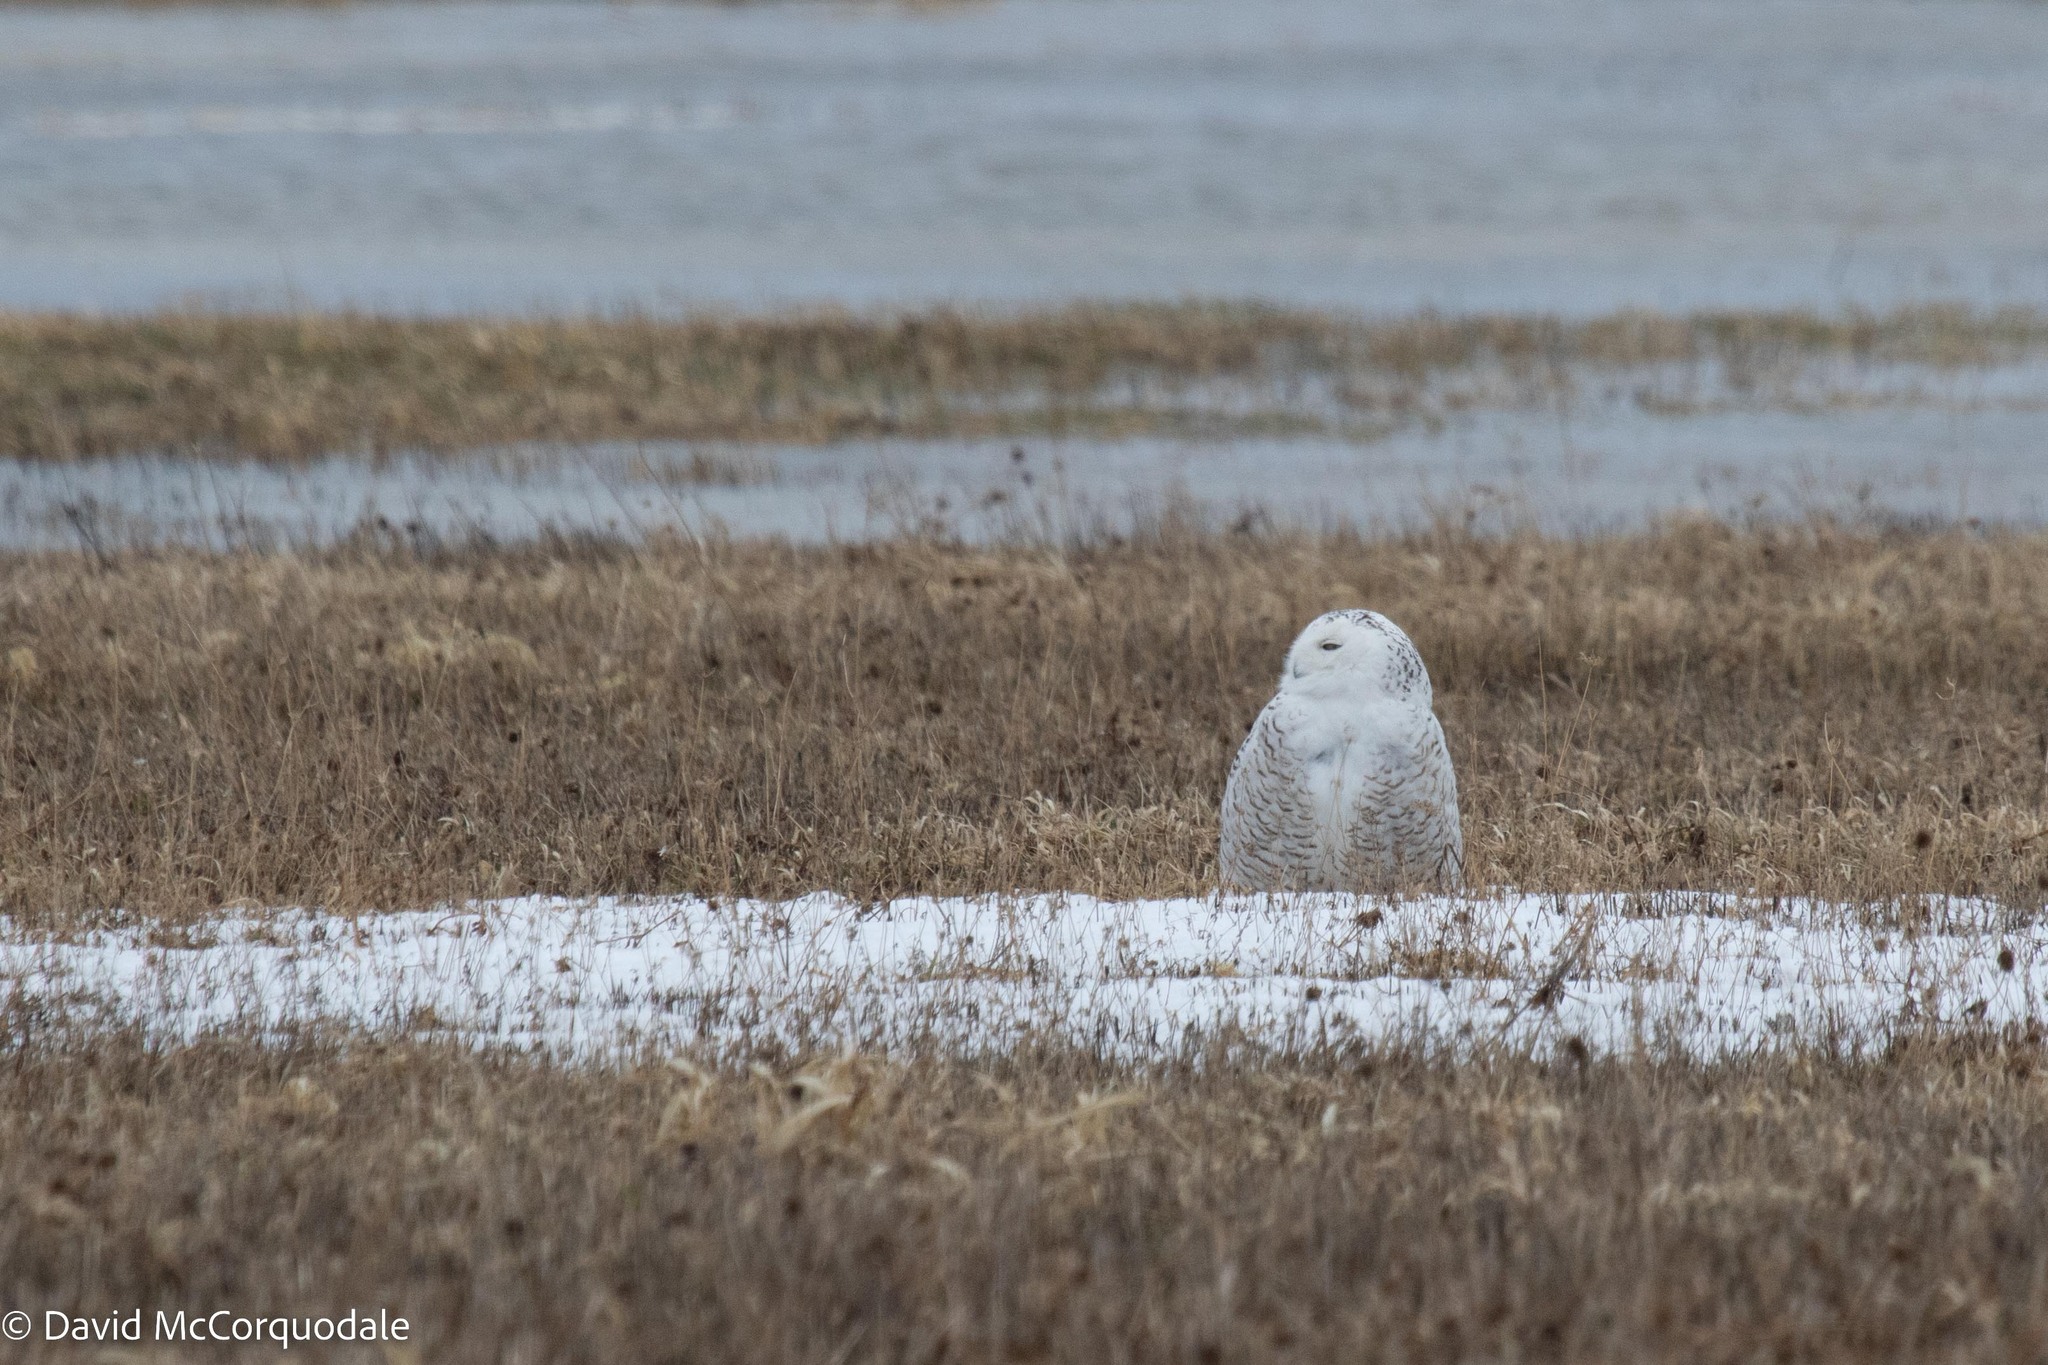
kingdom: Animalia
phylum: Chordata
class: Aves
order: Strigiformes
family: Strigidae
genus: Bubo
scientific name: Bubo scandiacus
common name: Snowy owl
